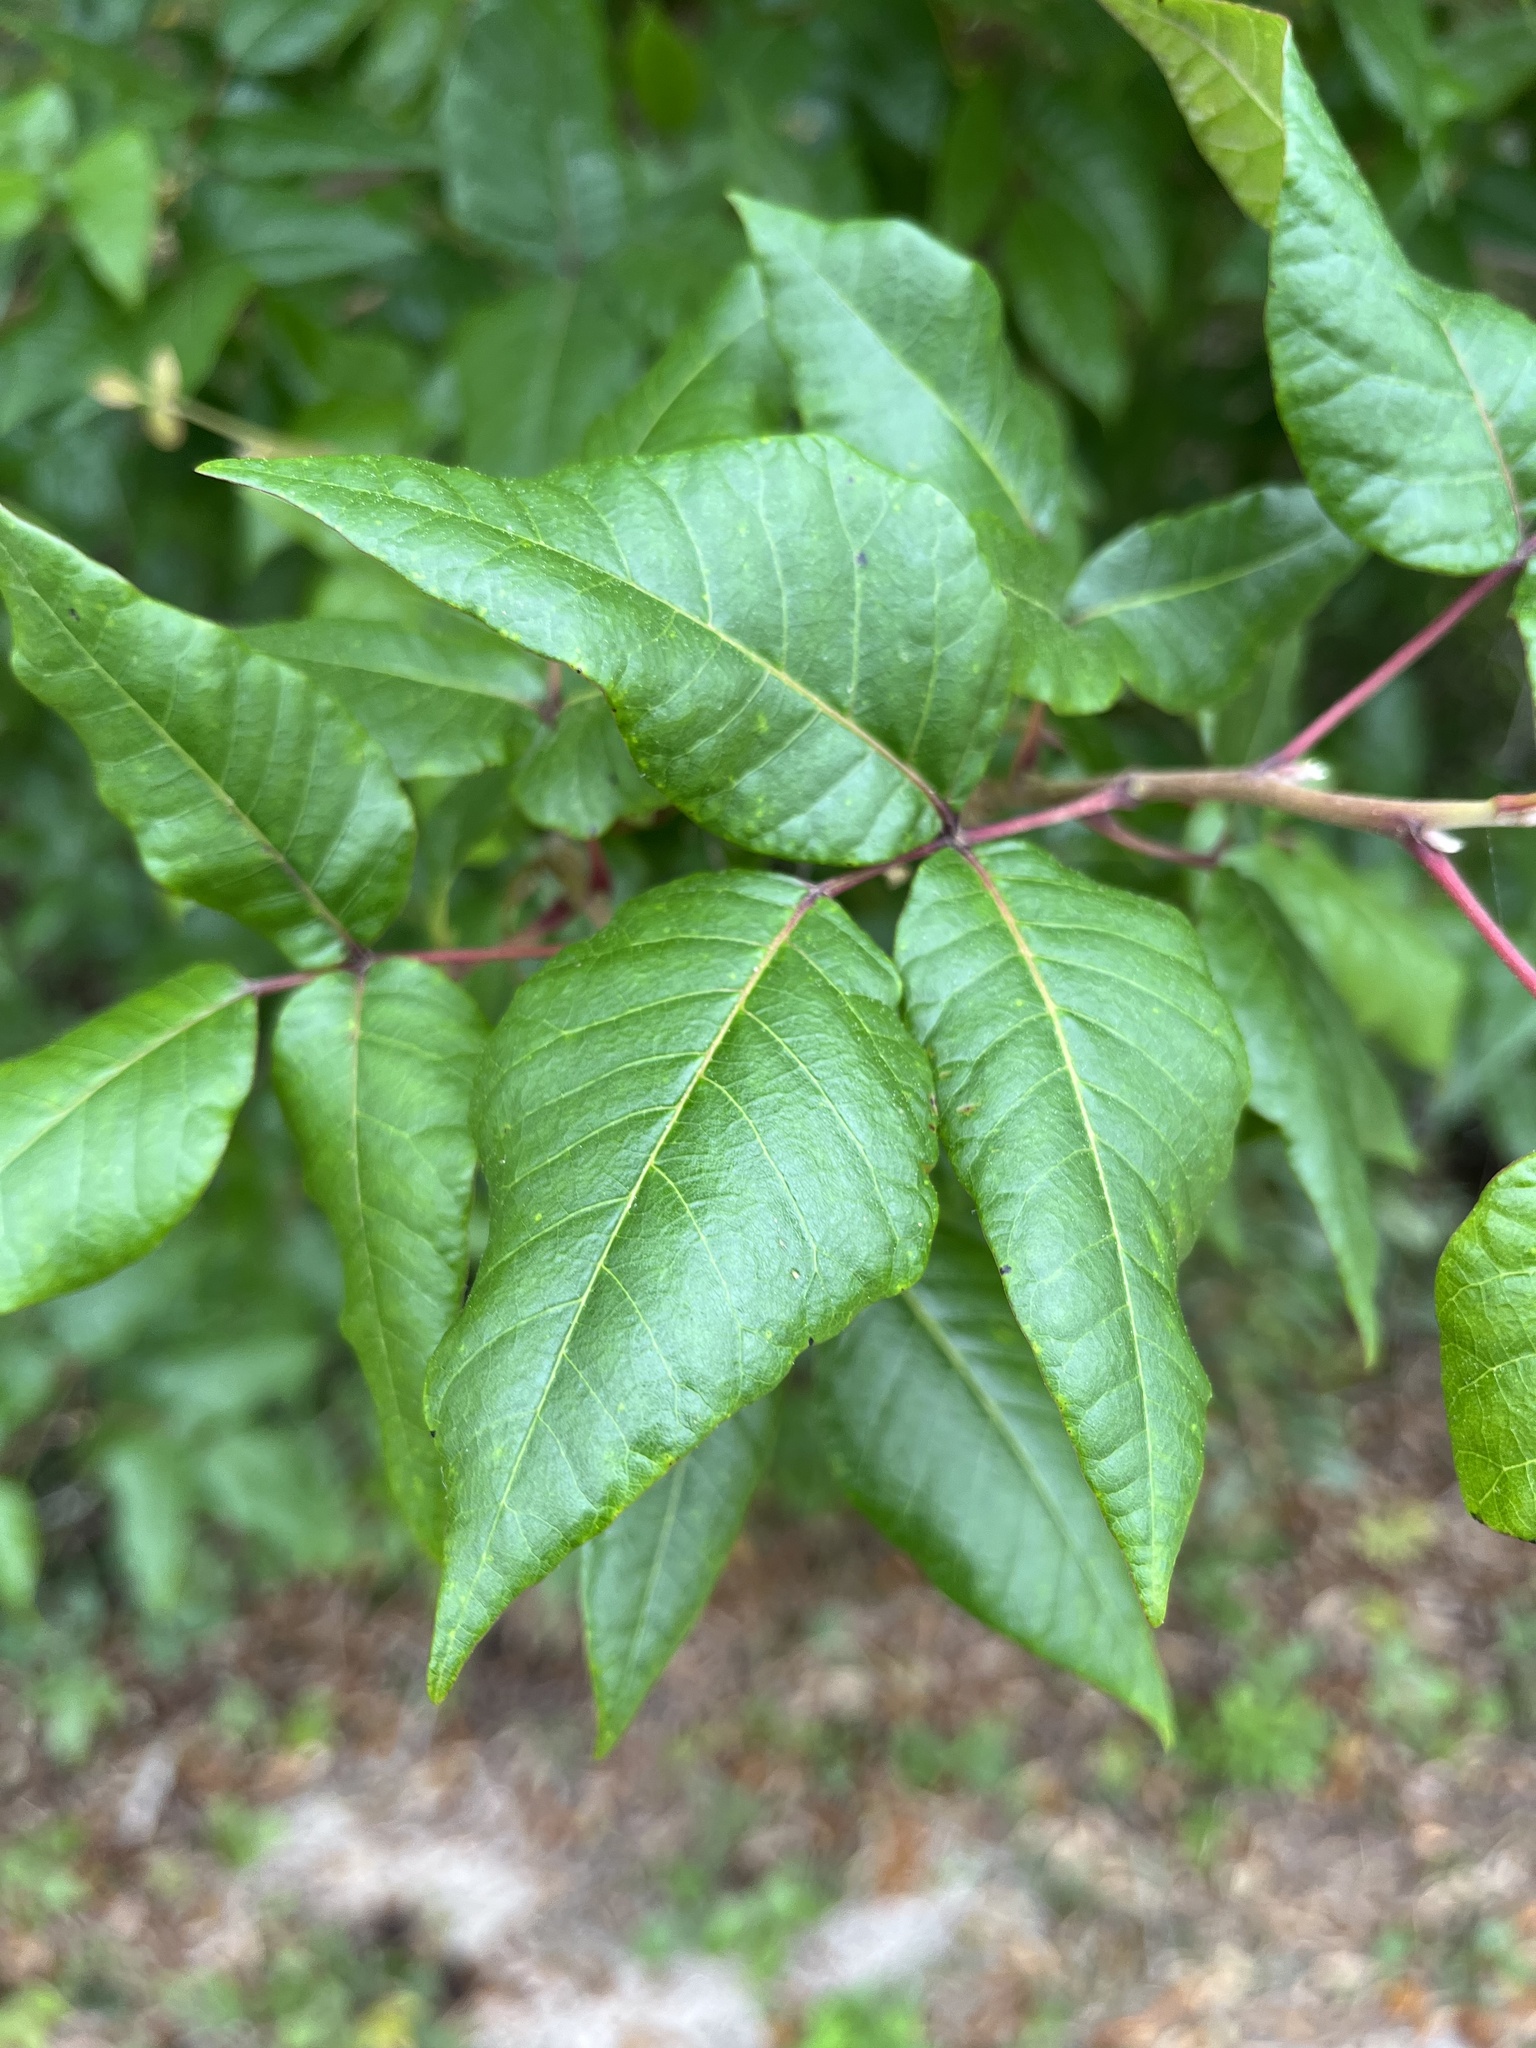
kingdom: Plantae
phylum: Tracheophyta
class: Magnoliopsida
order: Sapindales
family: Anacardiaceae
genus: Toxicodendron
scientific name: Toxicodendron radicans
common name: Poison ivy
